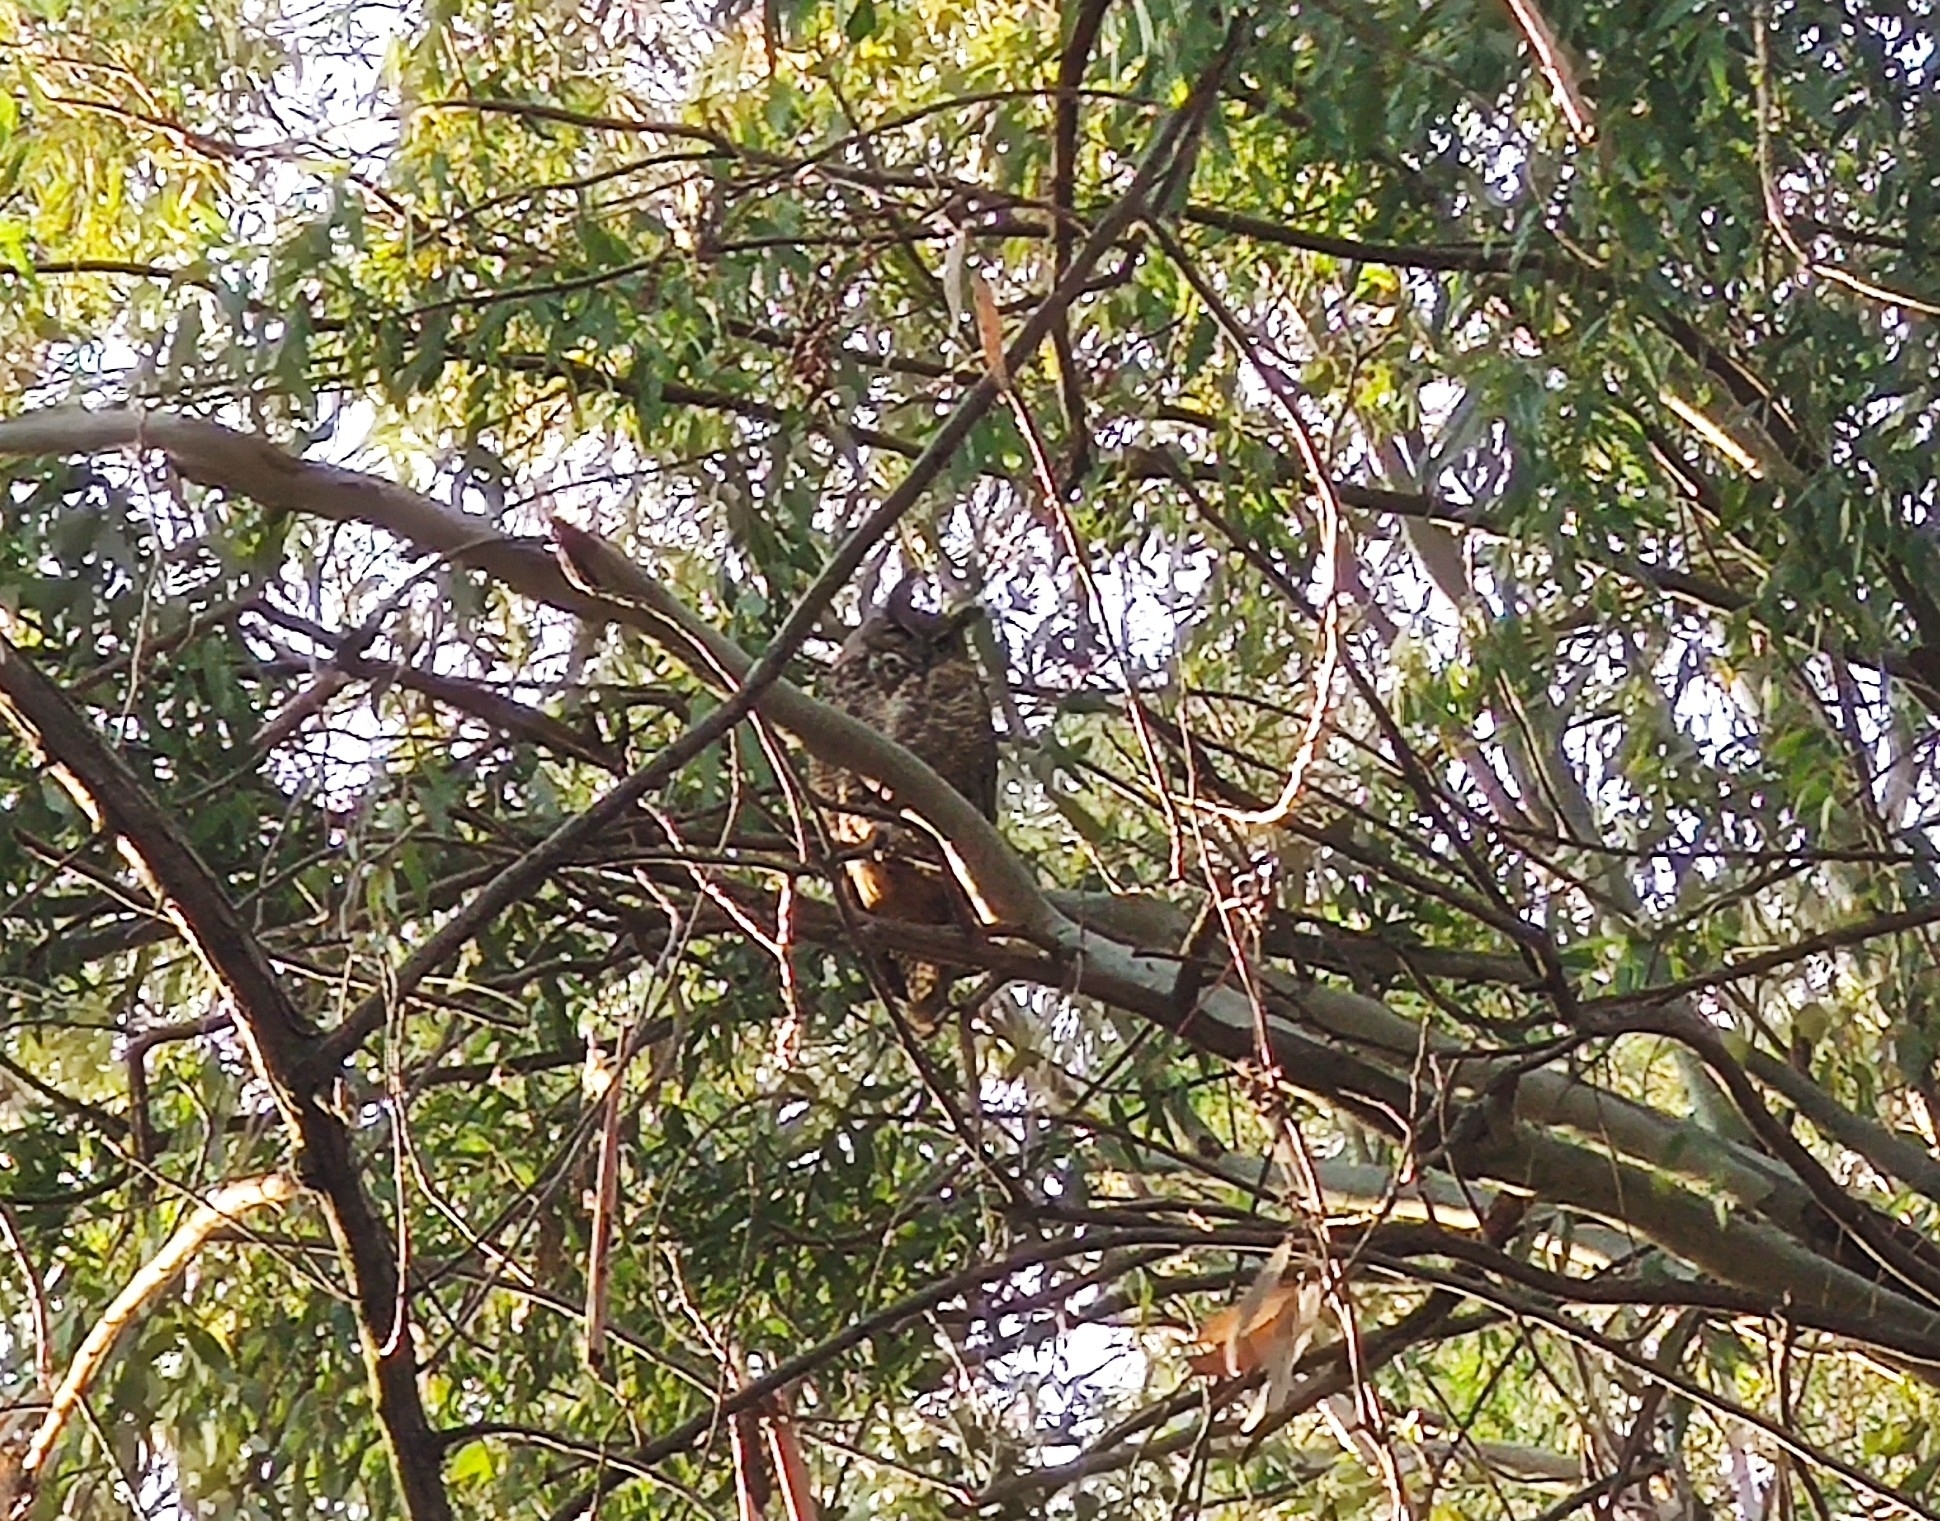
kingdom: Animalia
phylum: Chordata
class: Aves
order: Strigiformes
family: Strigidae
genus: Bubo
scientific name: Bubo virginianus
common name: Great horned owl
